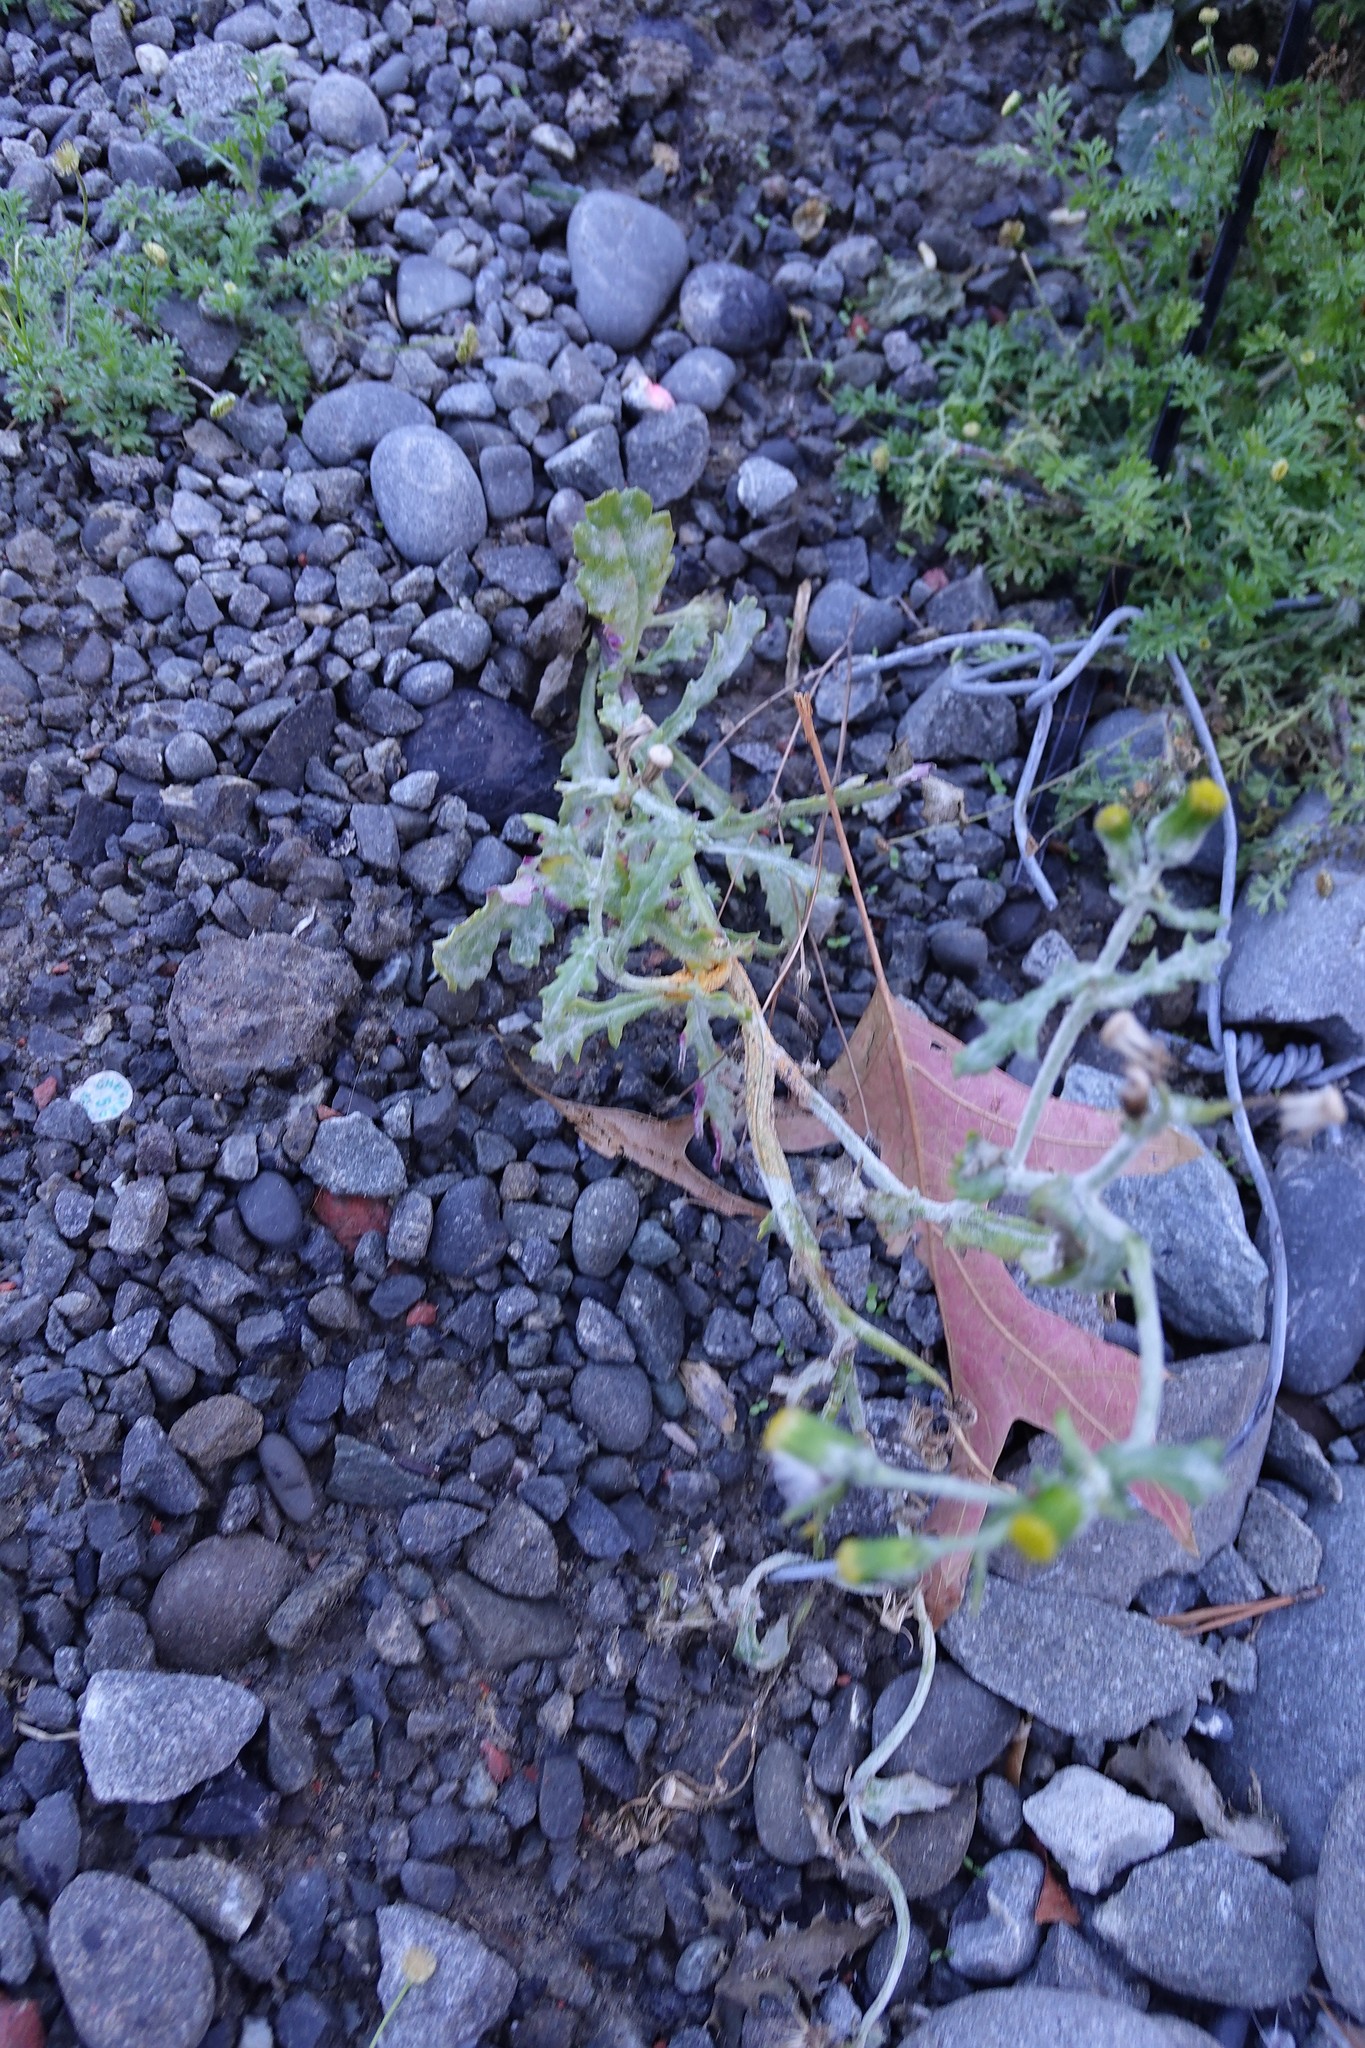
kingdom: Plantae
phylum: Tracheophyta
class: Magnoliopsida
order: Asterales
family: Asteraceae
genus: Senecio
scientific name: Senecio vulgaris
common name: Old-man-in-the-spring
